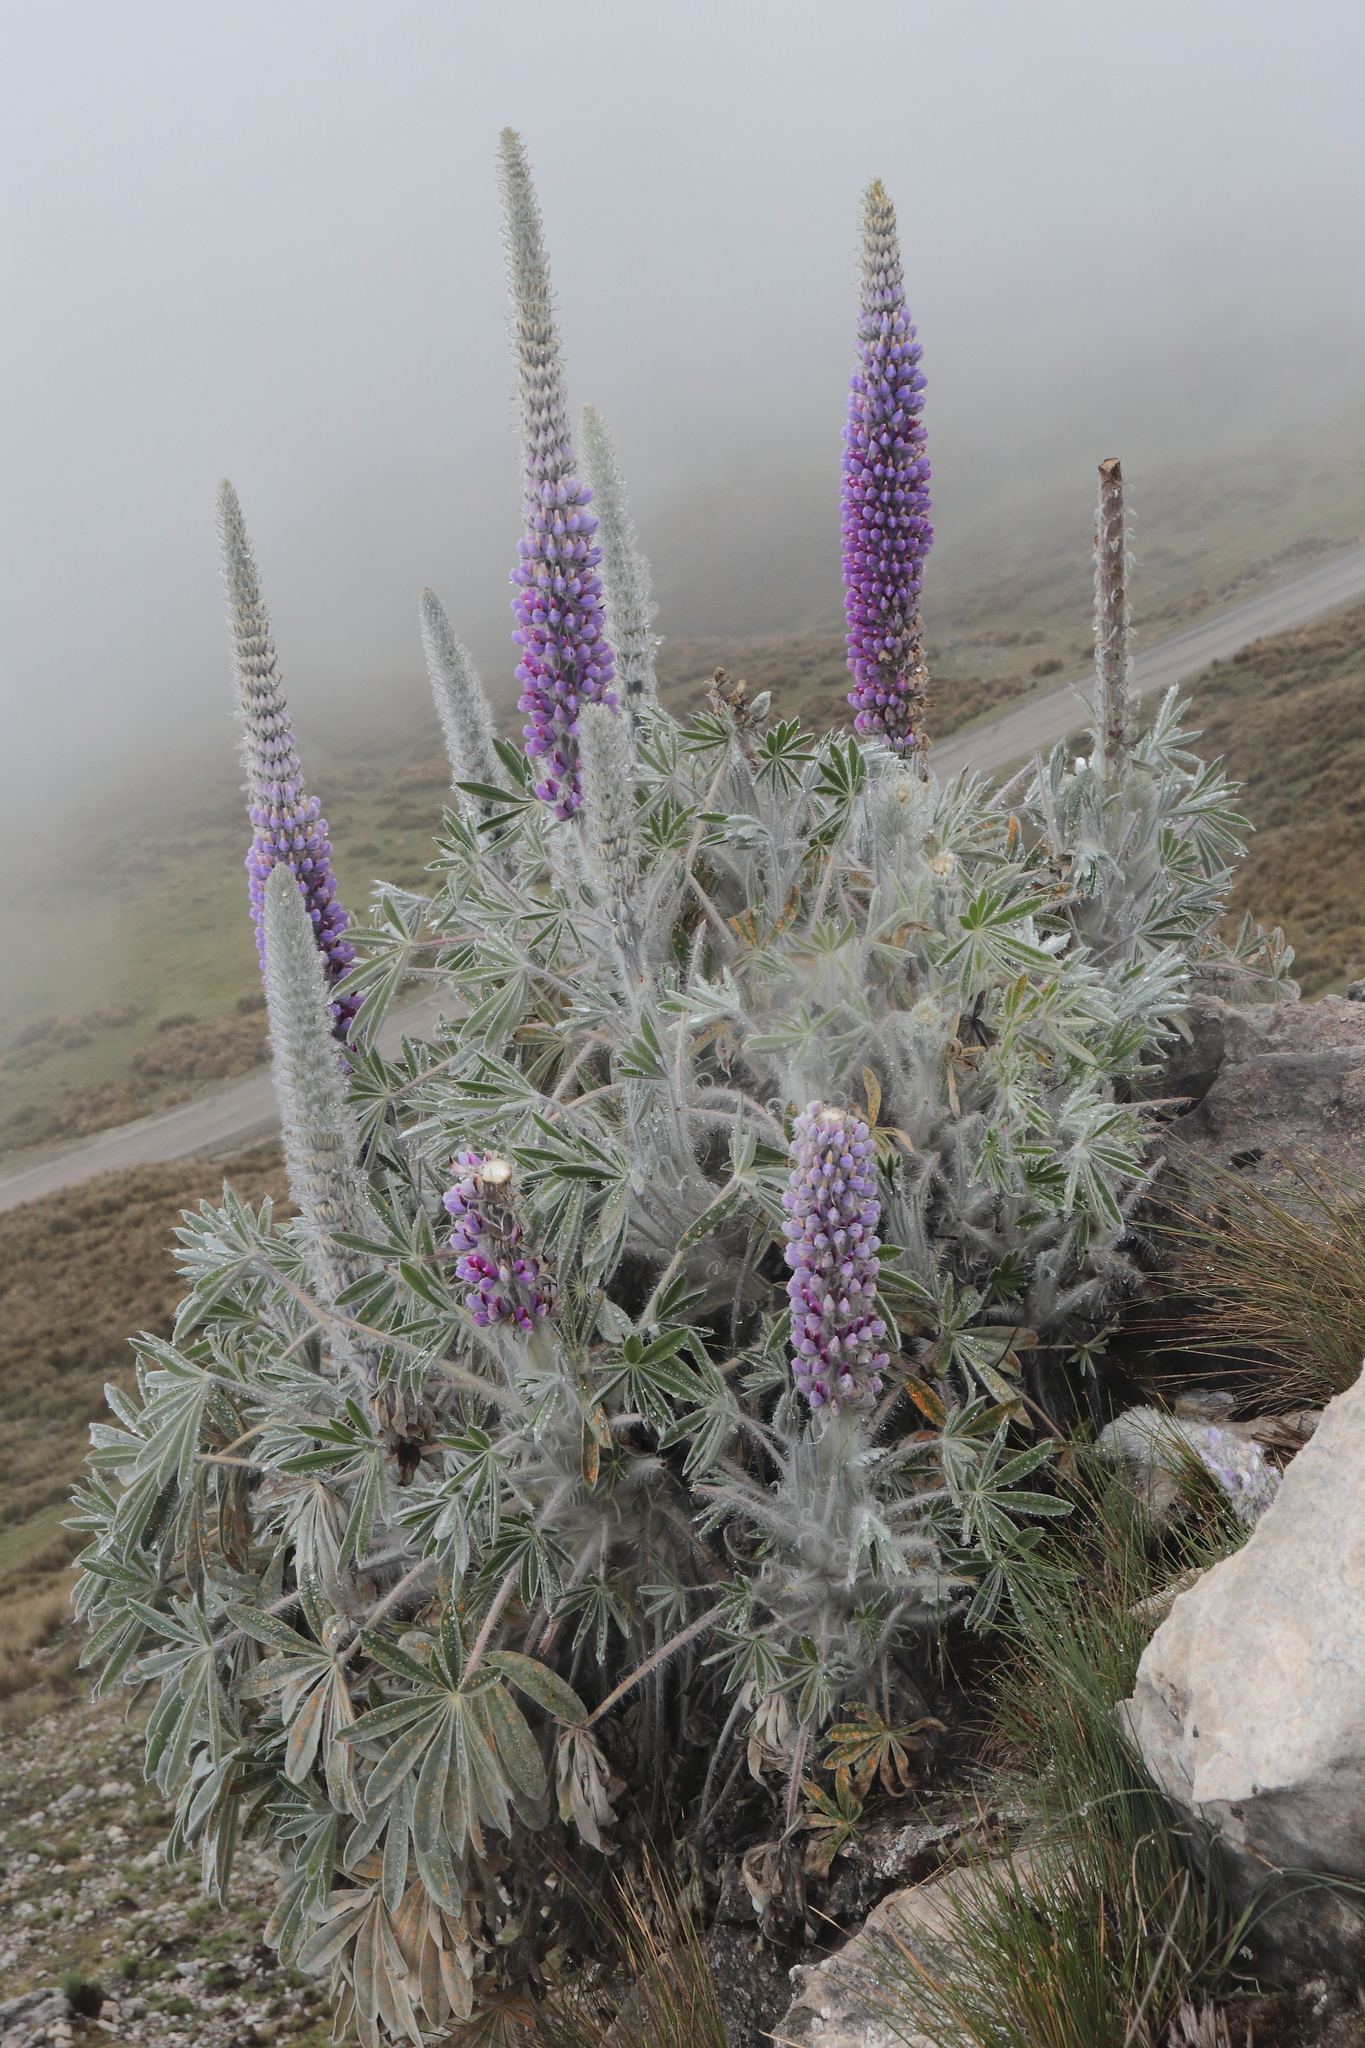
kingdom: Plantae
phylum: Tracheophyta
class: Magnoliopsida
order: Fabales
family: Fabaceae
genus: Lupinus
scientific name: Lupinus weberbaueri
